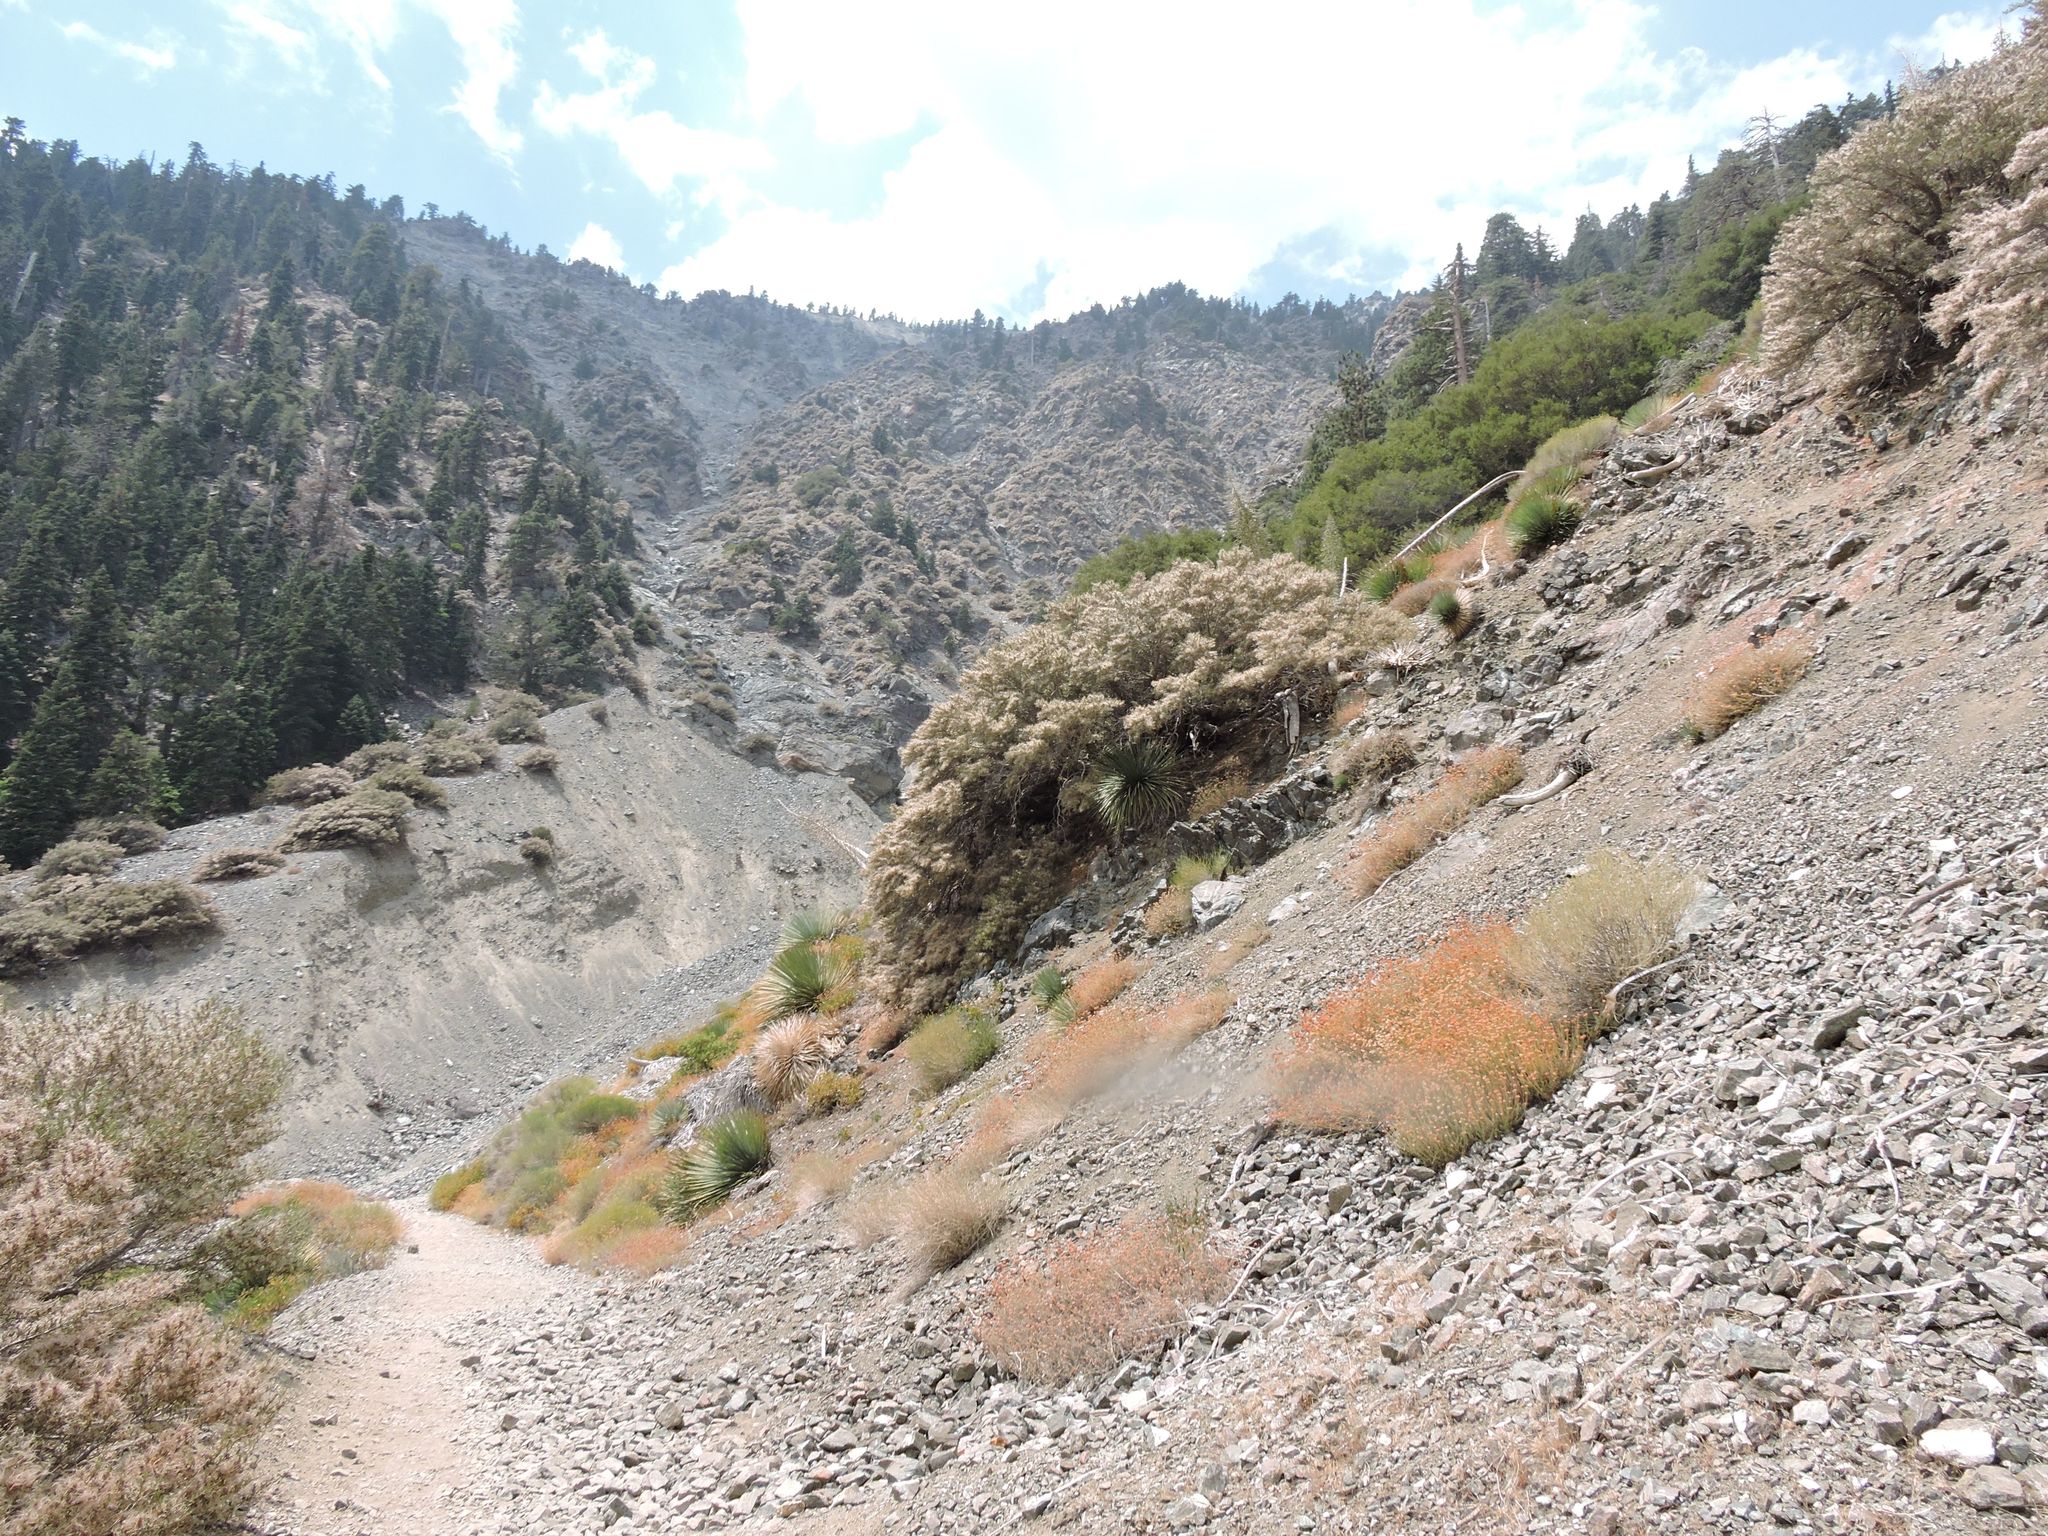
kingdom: Plantae
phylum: Tracheophyta
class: Magnoliopsida
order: Rosales
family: Rosaceae
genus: Cercocarpus
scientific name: Cercocarpus ledifolius
